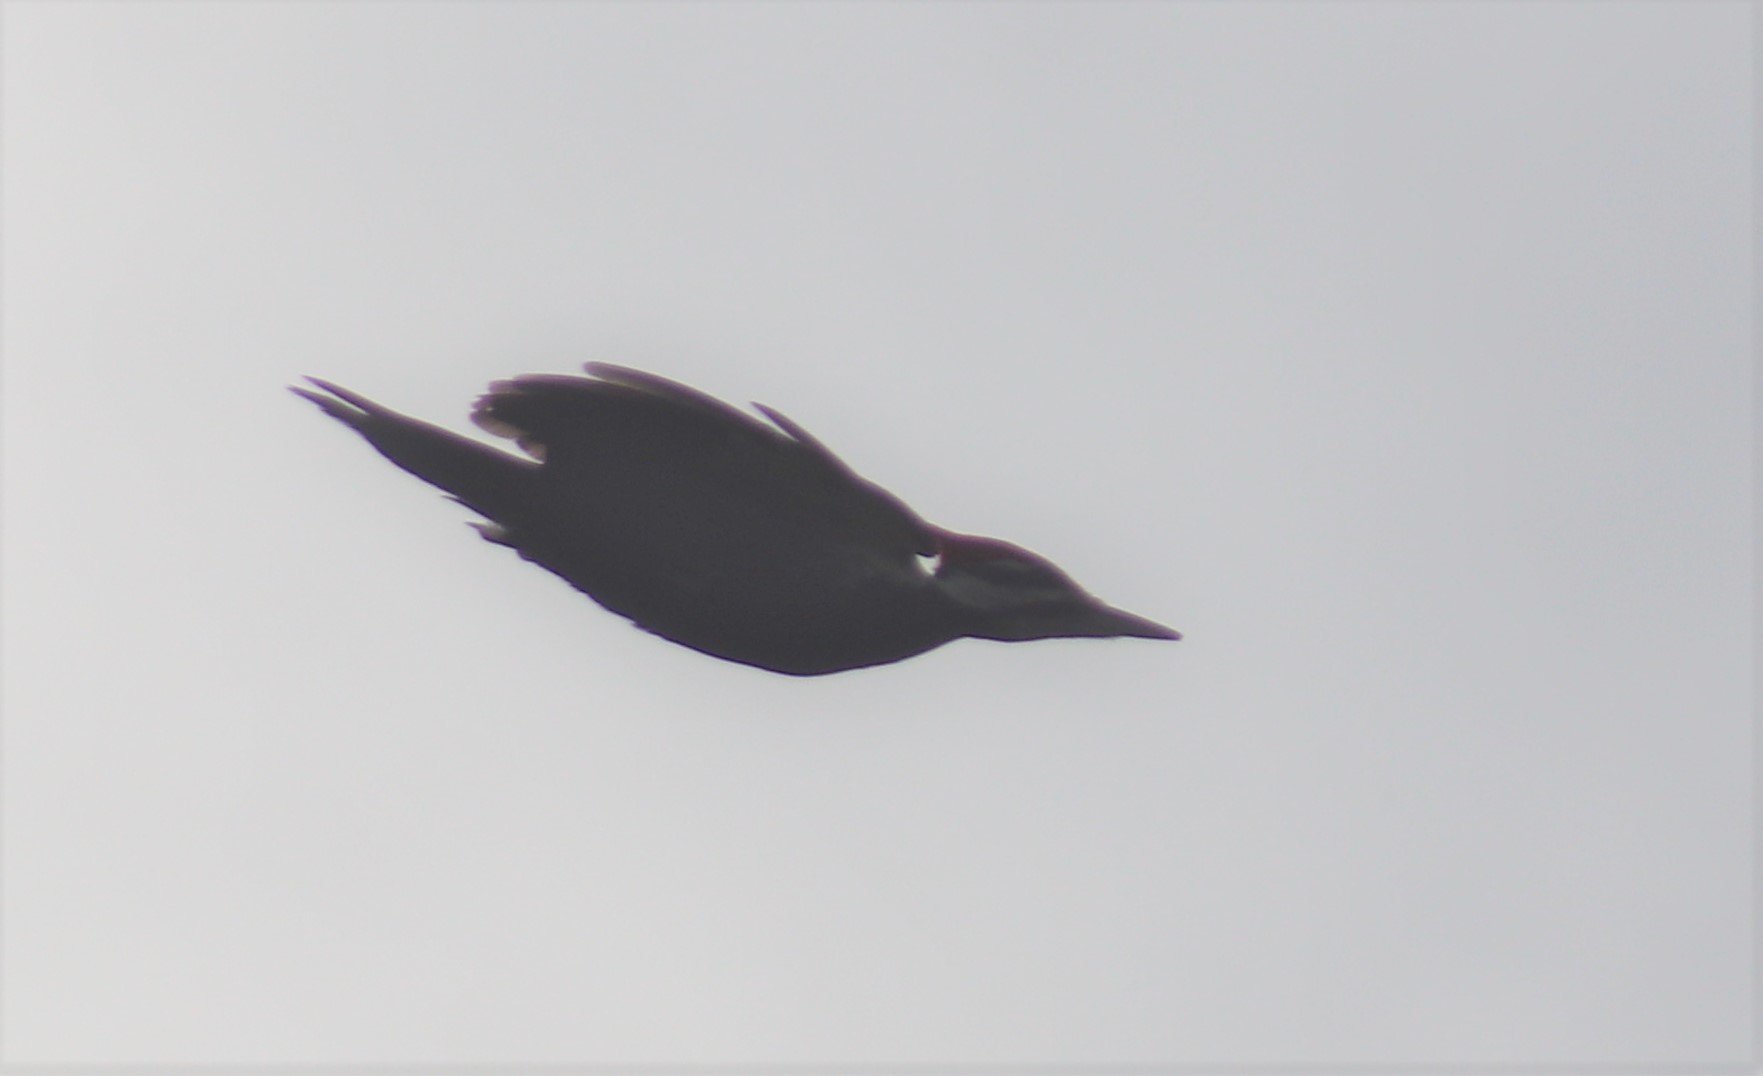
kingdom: Animalia
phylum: Chordata
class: Aves
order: Piciformes
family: Picidae
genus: Dryocopus
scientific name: Dryocopus pileatus
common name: Pileated woodpecker
